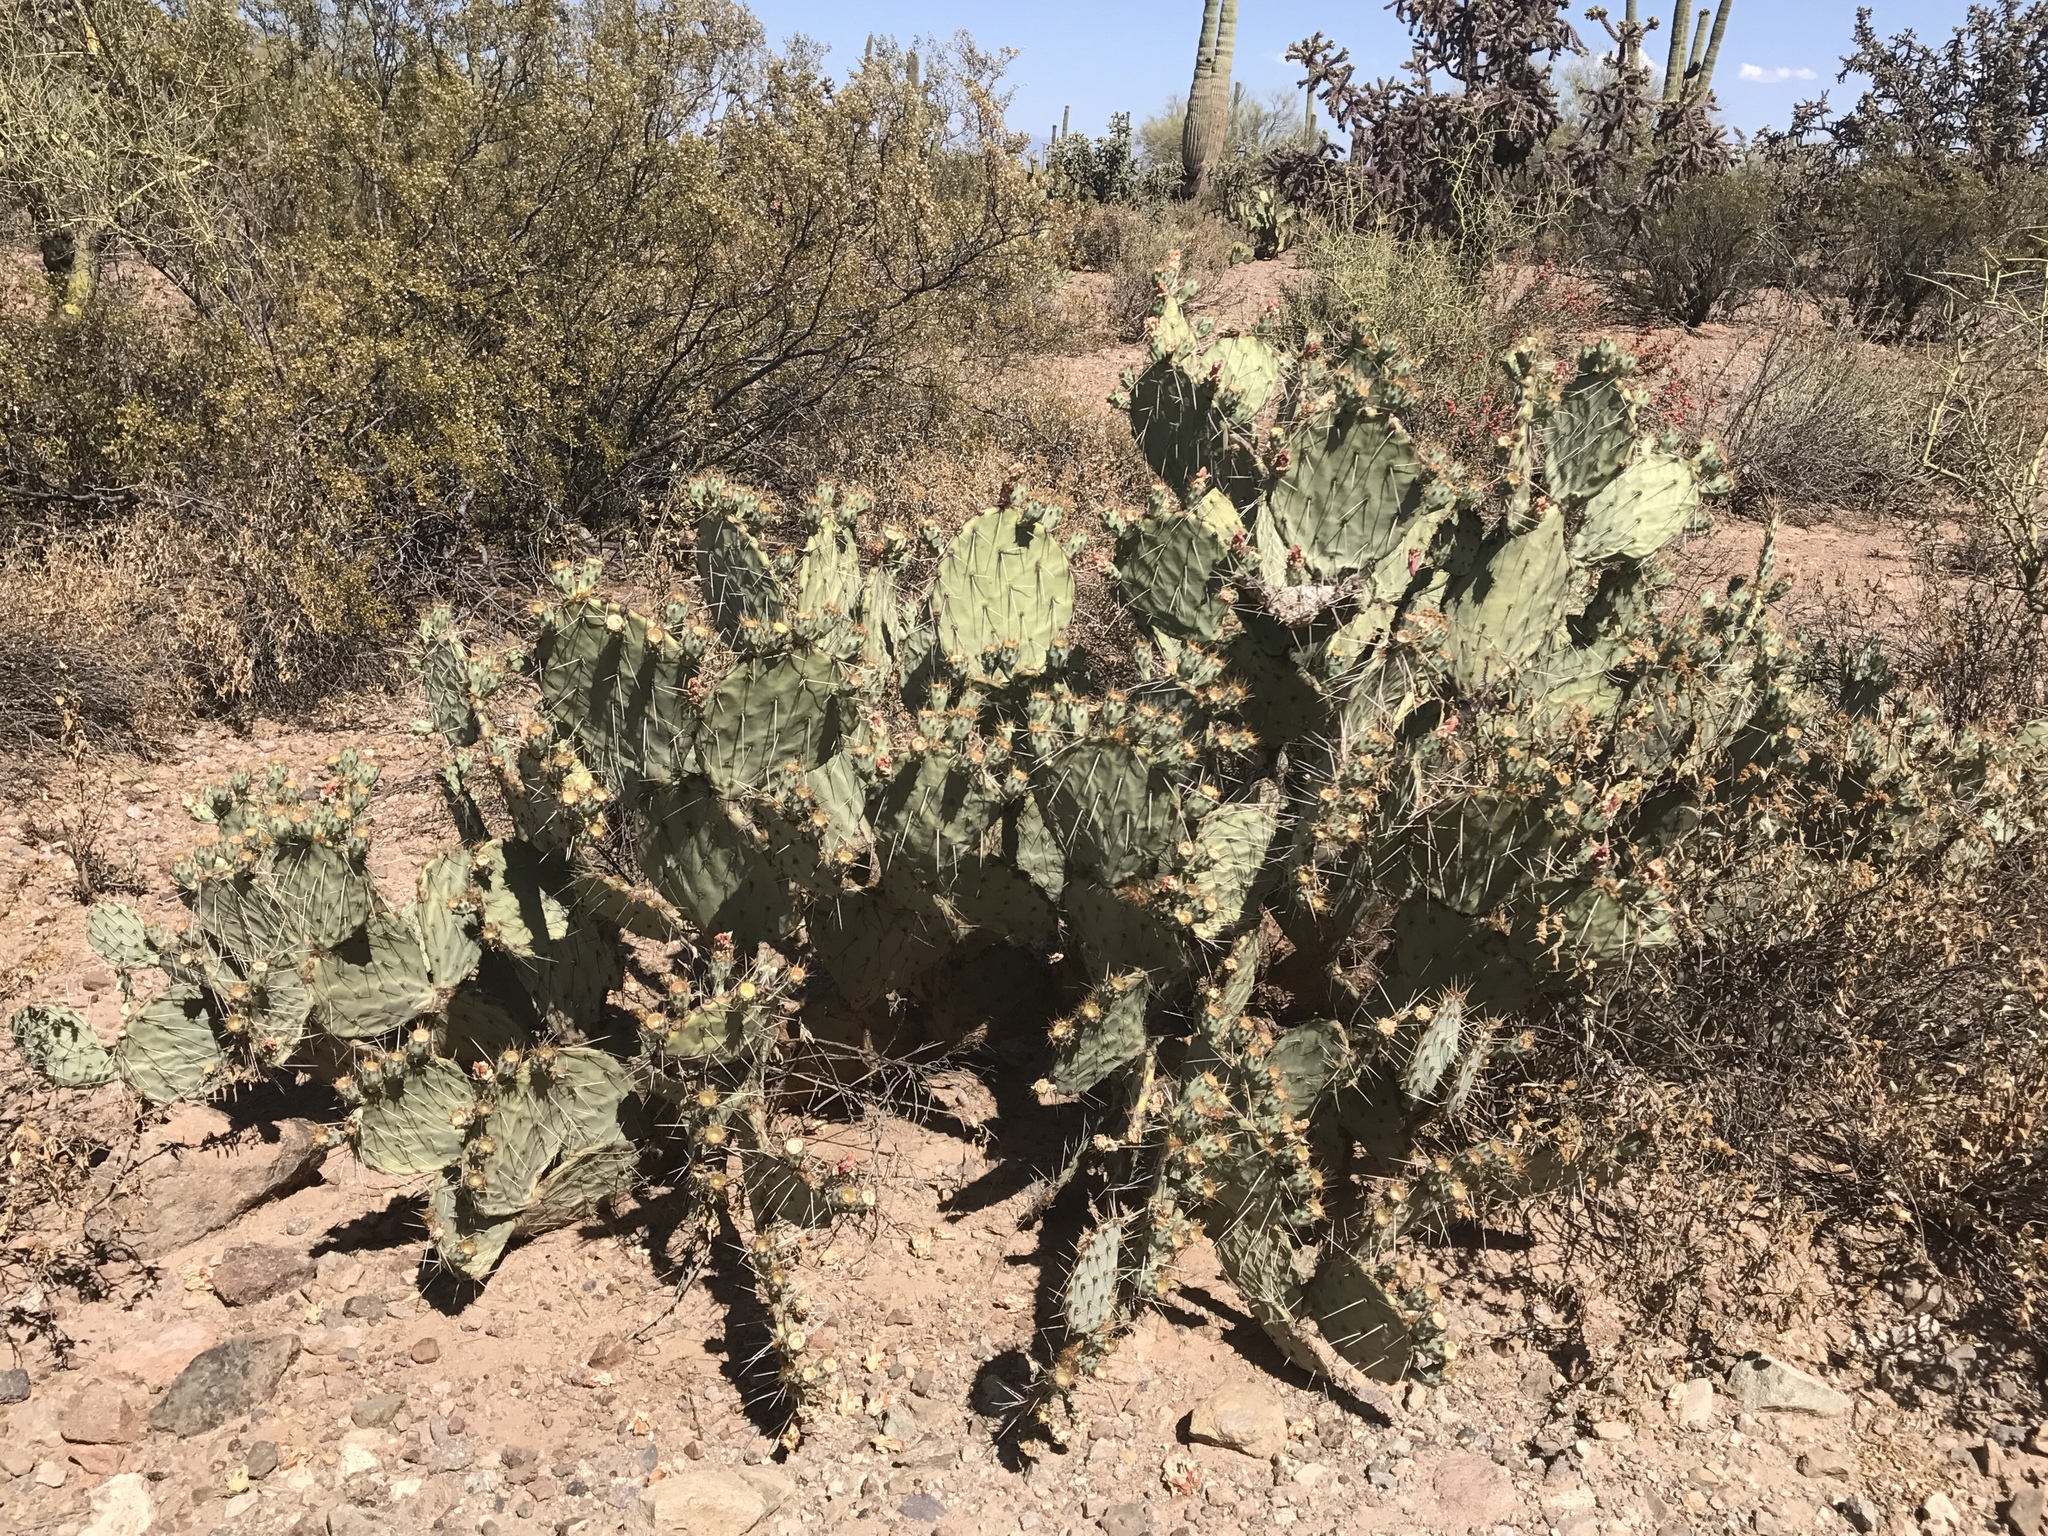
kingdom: Plantae
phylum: Tracheophyta
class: Magnoliopsida
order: Caryophyllales
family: Cactaceae
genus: Opuntia
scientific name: Opuntia engelmannii
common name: Cactus-apple
